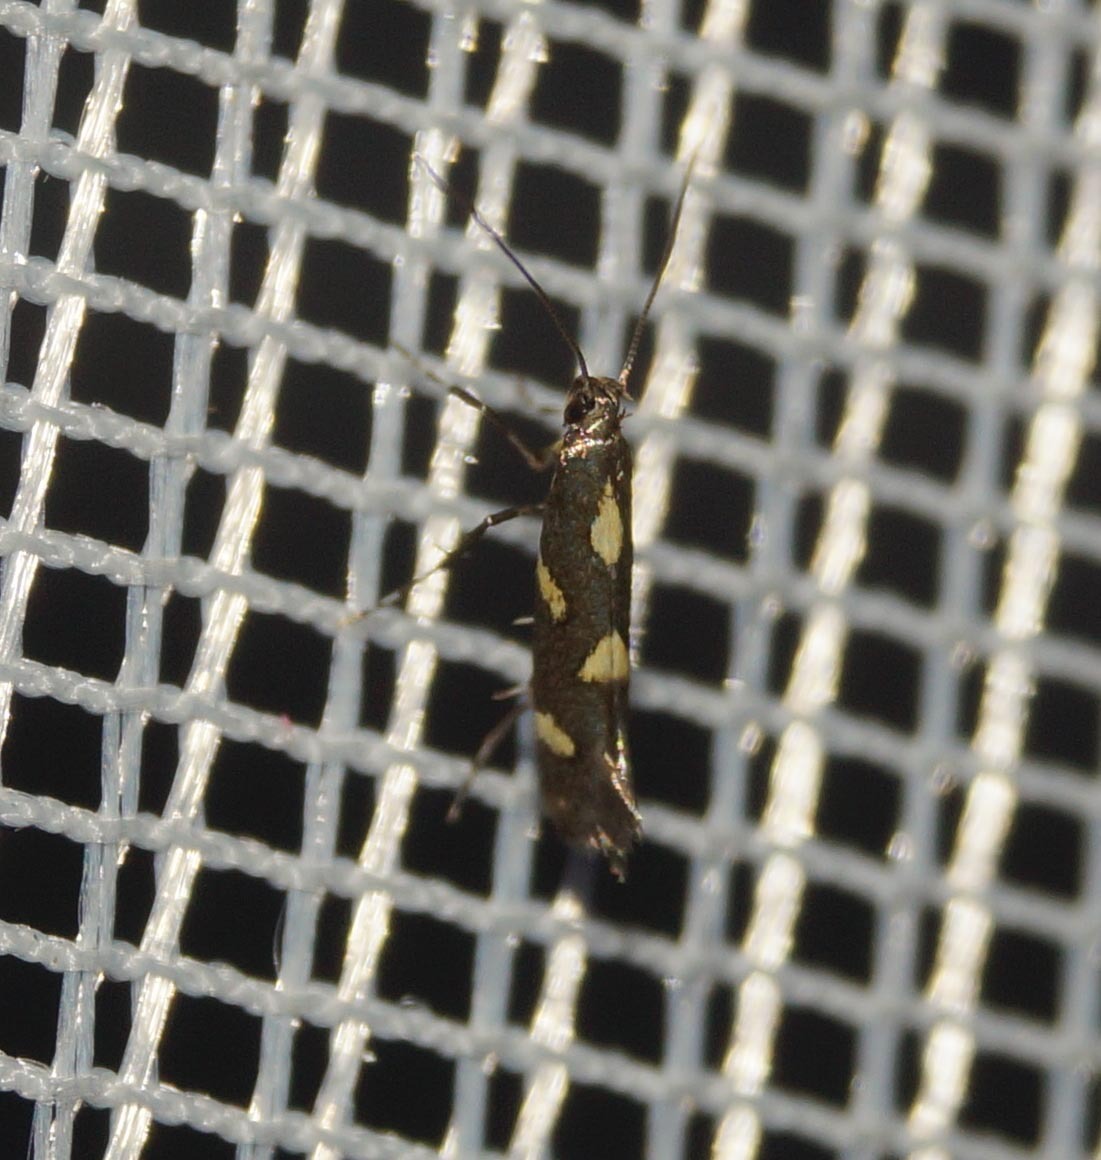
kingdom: Animalia
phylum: Arthropoda
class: Insecta
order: Lepidoptera
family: Gracillariidae
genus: Calybites
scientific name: Calybites phasianipennella
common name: Little slender
